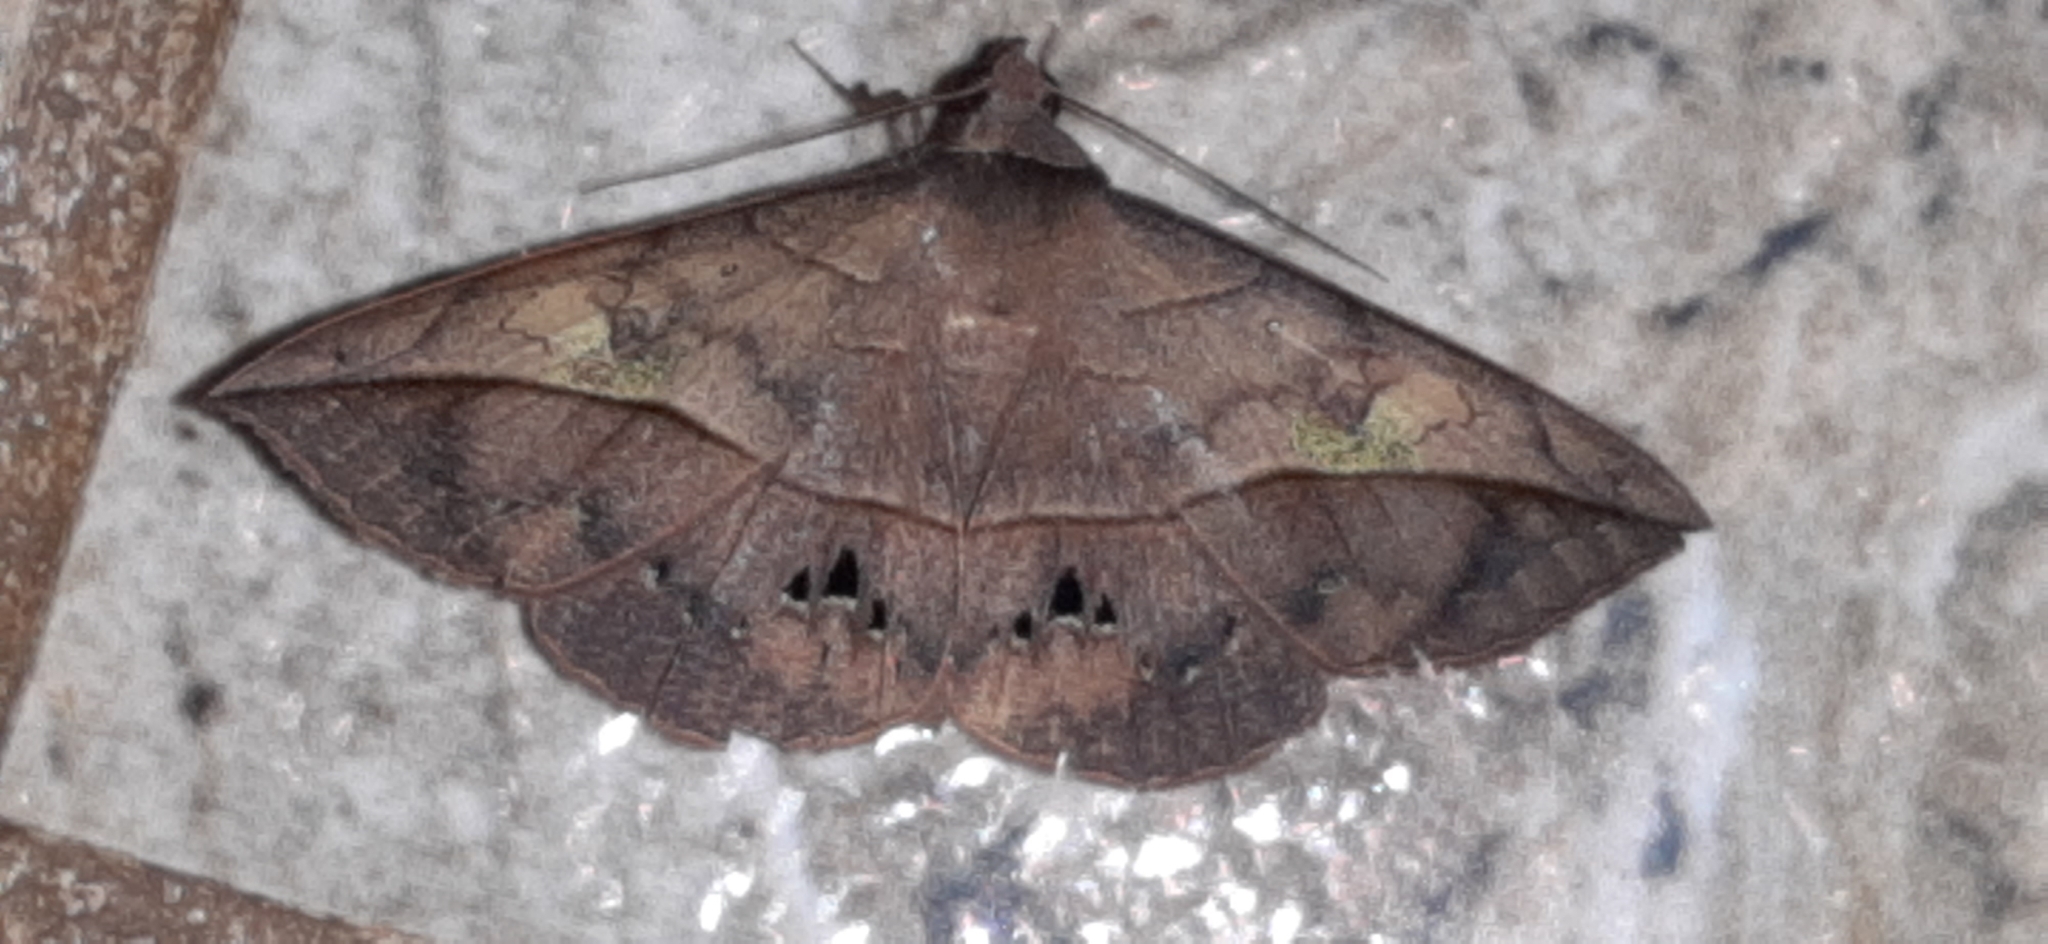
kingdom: Animalia
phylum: Arthropoda
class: Insecta
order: Lepidoptera
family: Erebidae
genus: Anticarsia
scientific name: Anticarsia anisospila
